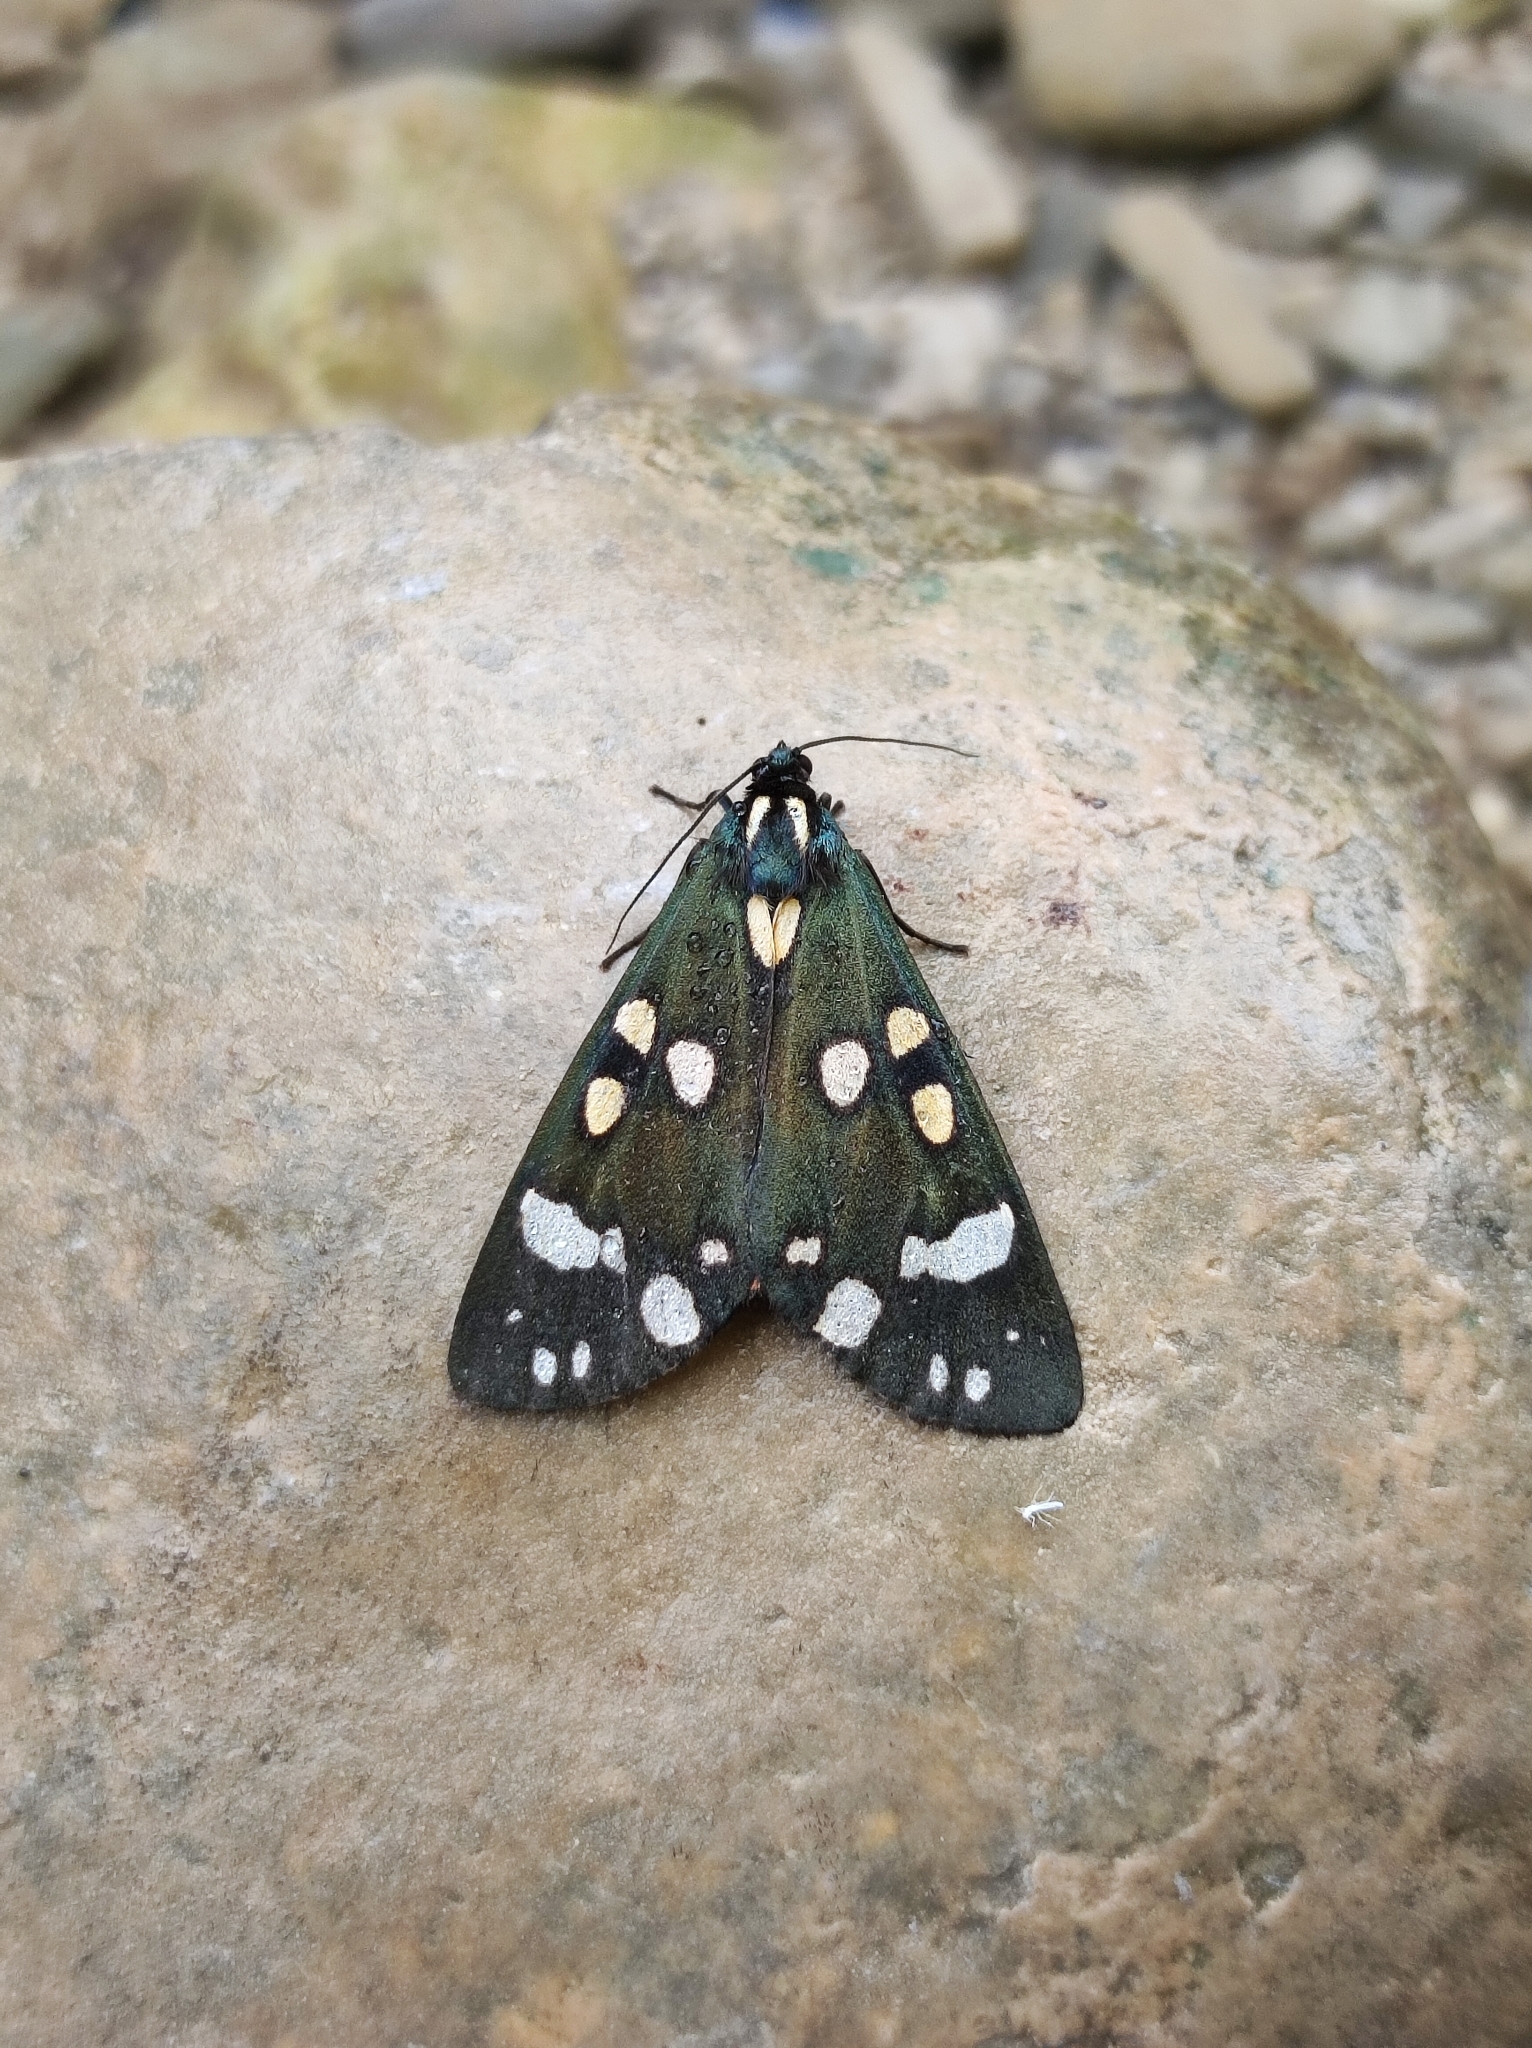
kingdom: Animalia
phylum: Arthropoda
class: Insecta
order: Lepidoptera
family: Erebidae
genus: Callimorpha
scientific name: Callimorpha dominula
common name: Scarlet tiger
